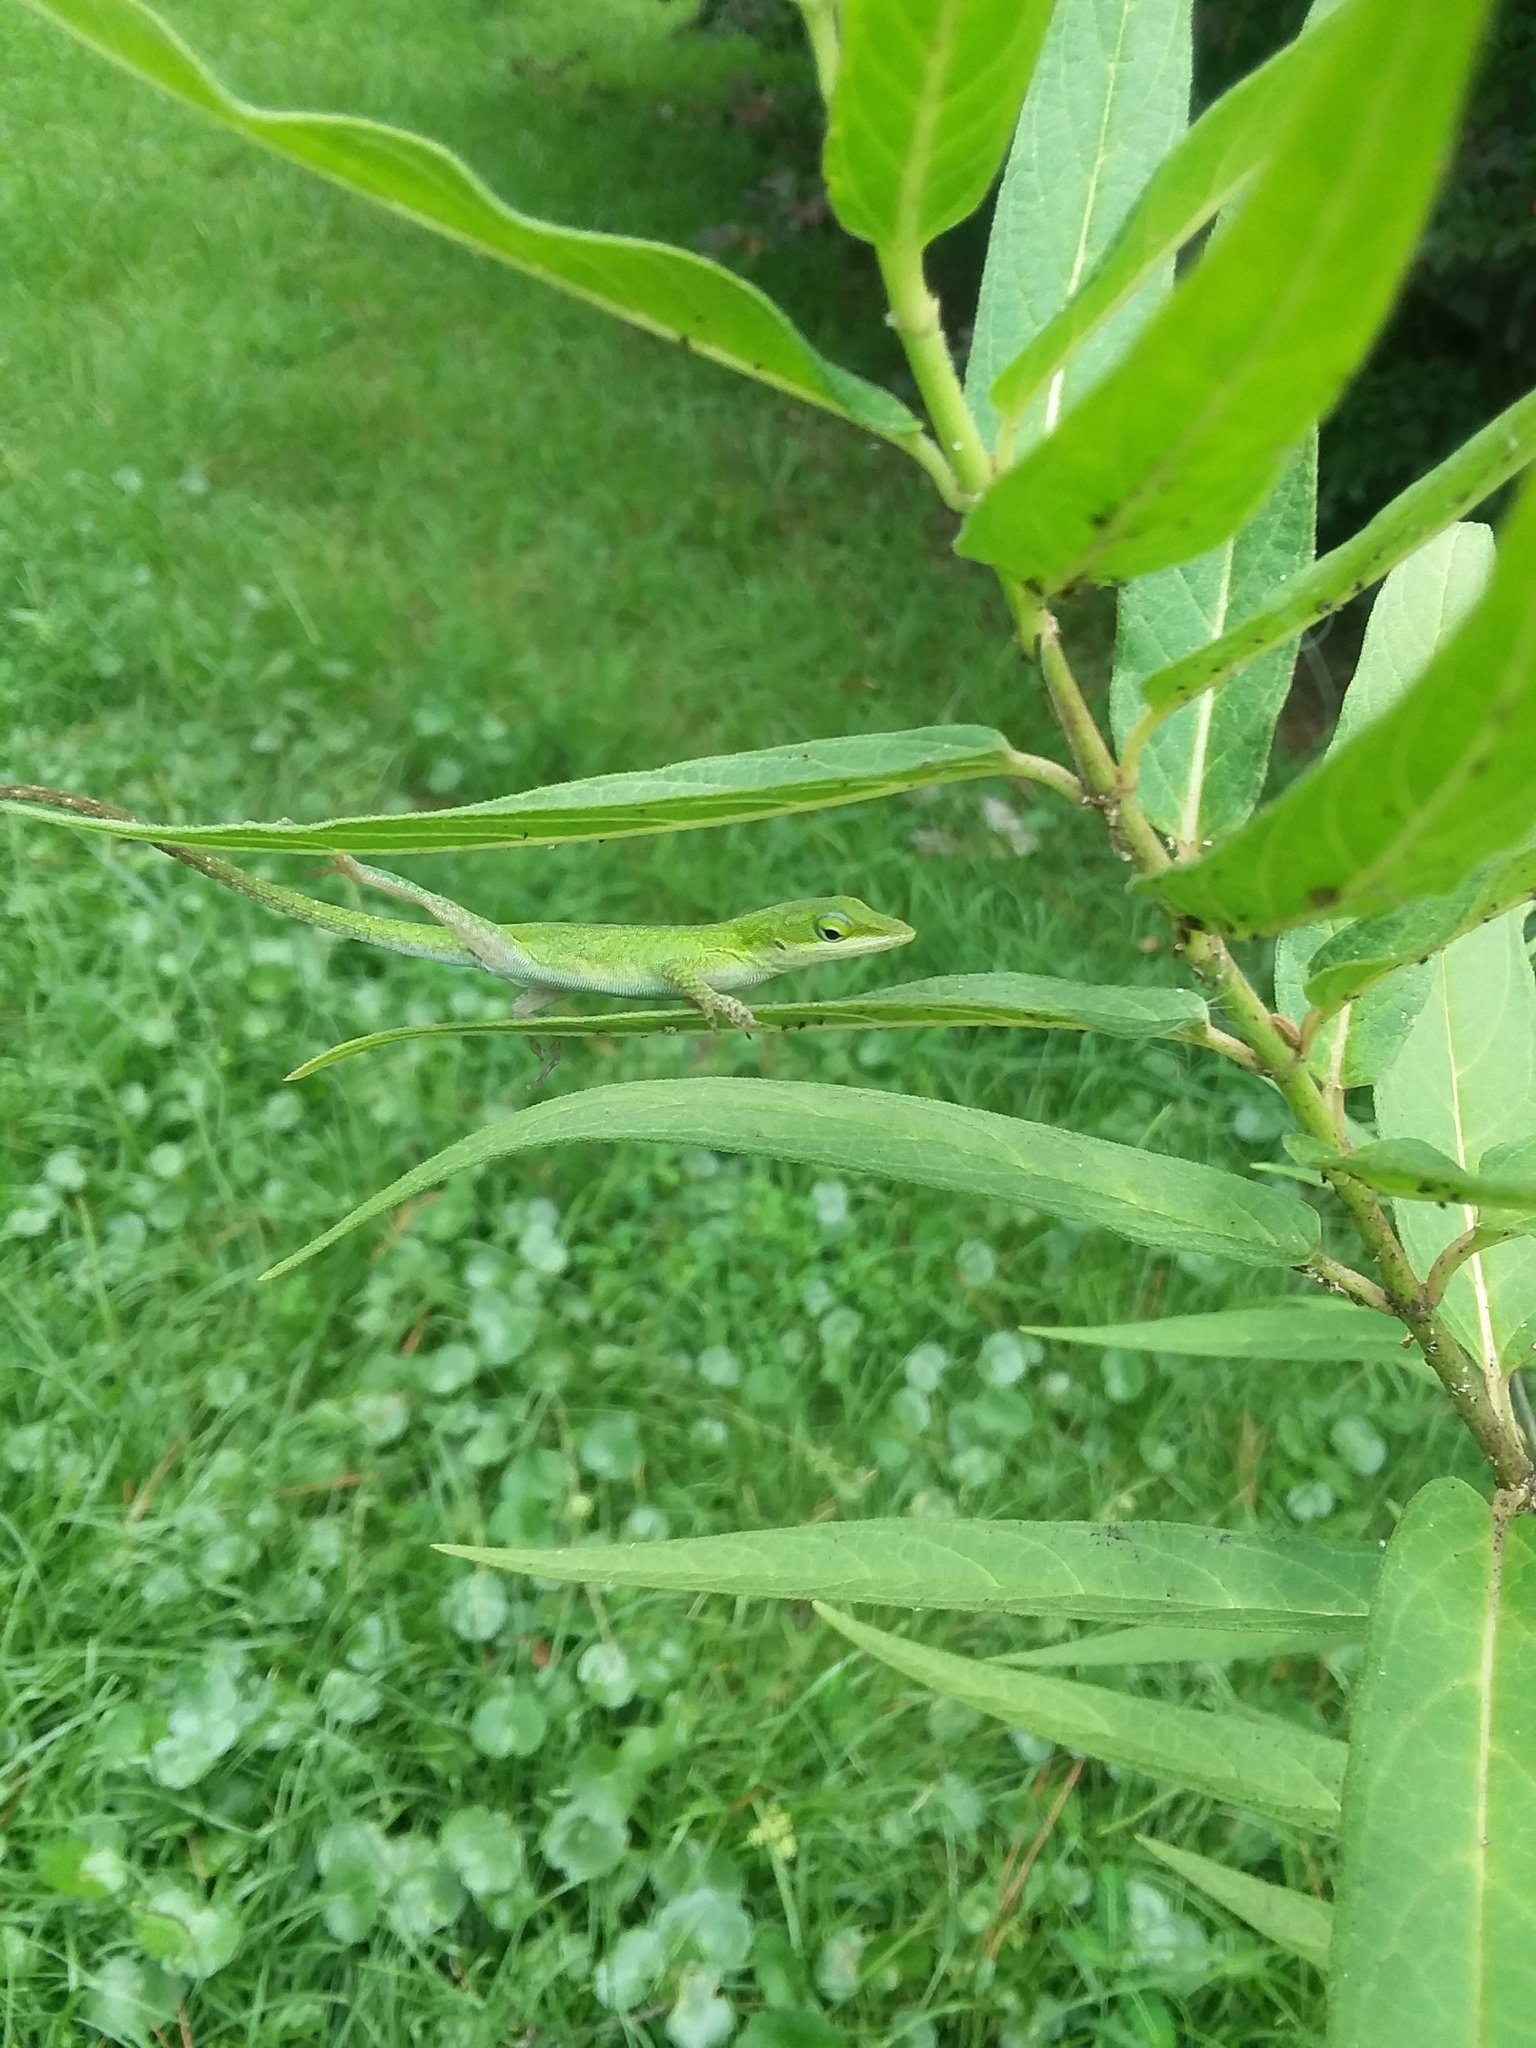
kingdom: Animalia
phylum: Chordata
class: Squamata
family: Dactyloidae
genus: Anolis
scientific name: Anolis carolinensis
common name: Green anole
